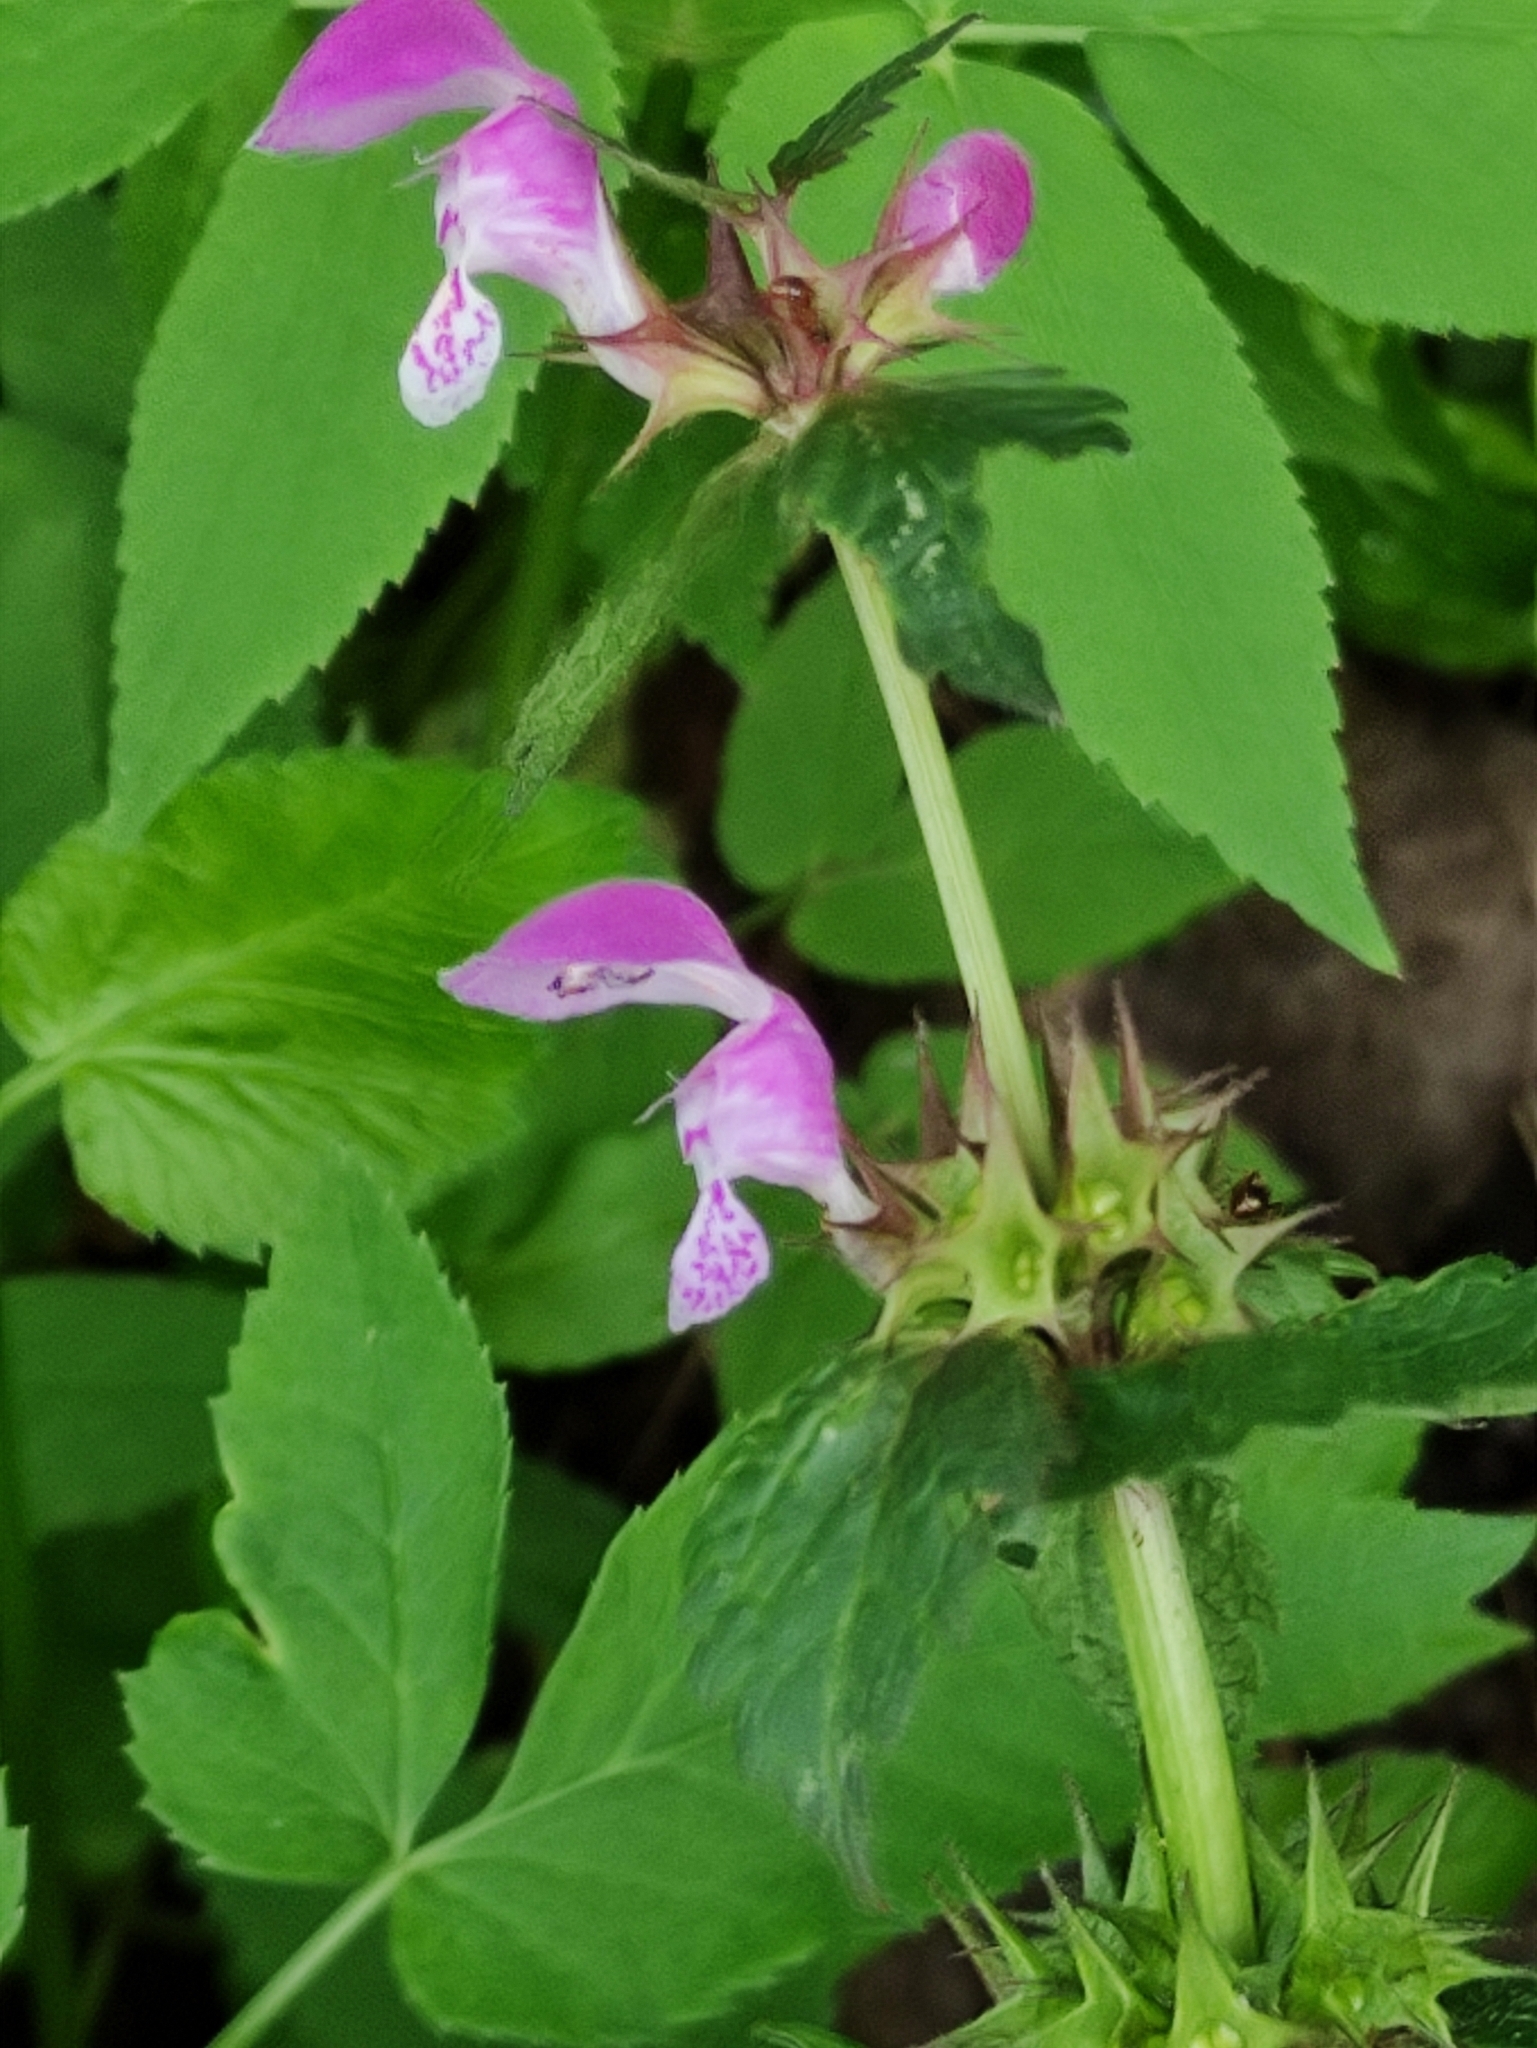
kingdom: Plantae
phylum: Tracheophyta
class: Magnoliopsida
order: Lamiales
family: Lamiaceae
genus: Lamium
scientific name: Lamium maculatum
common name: Spotted dead-nettle
